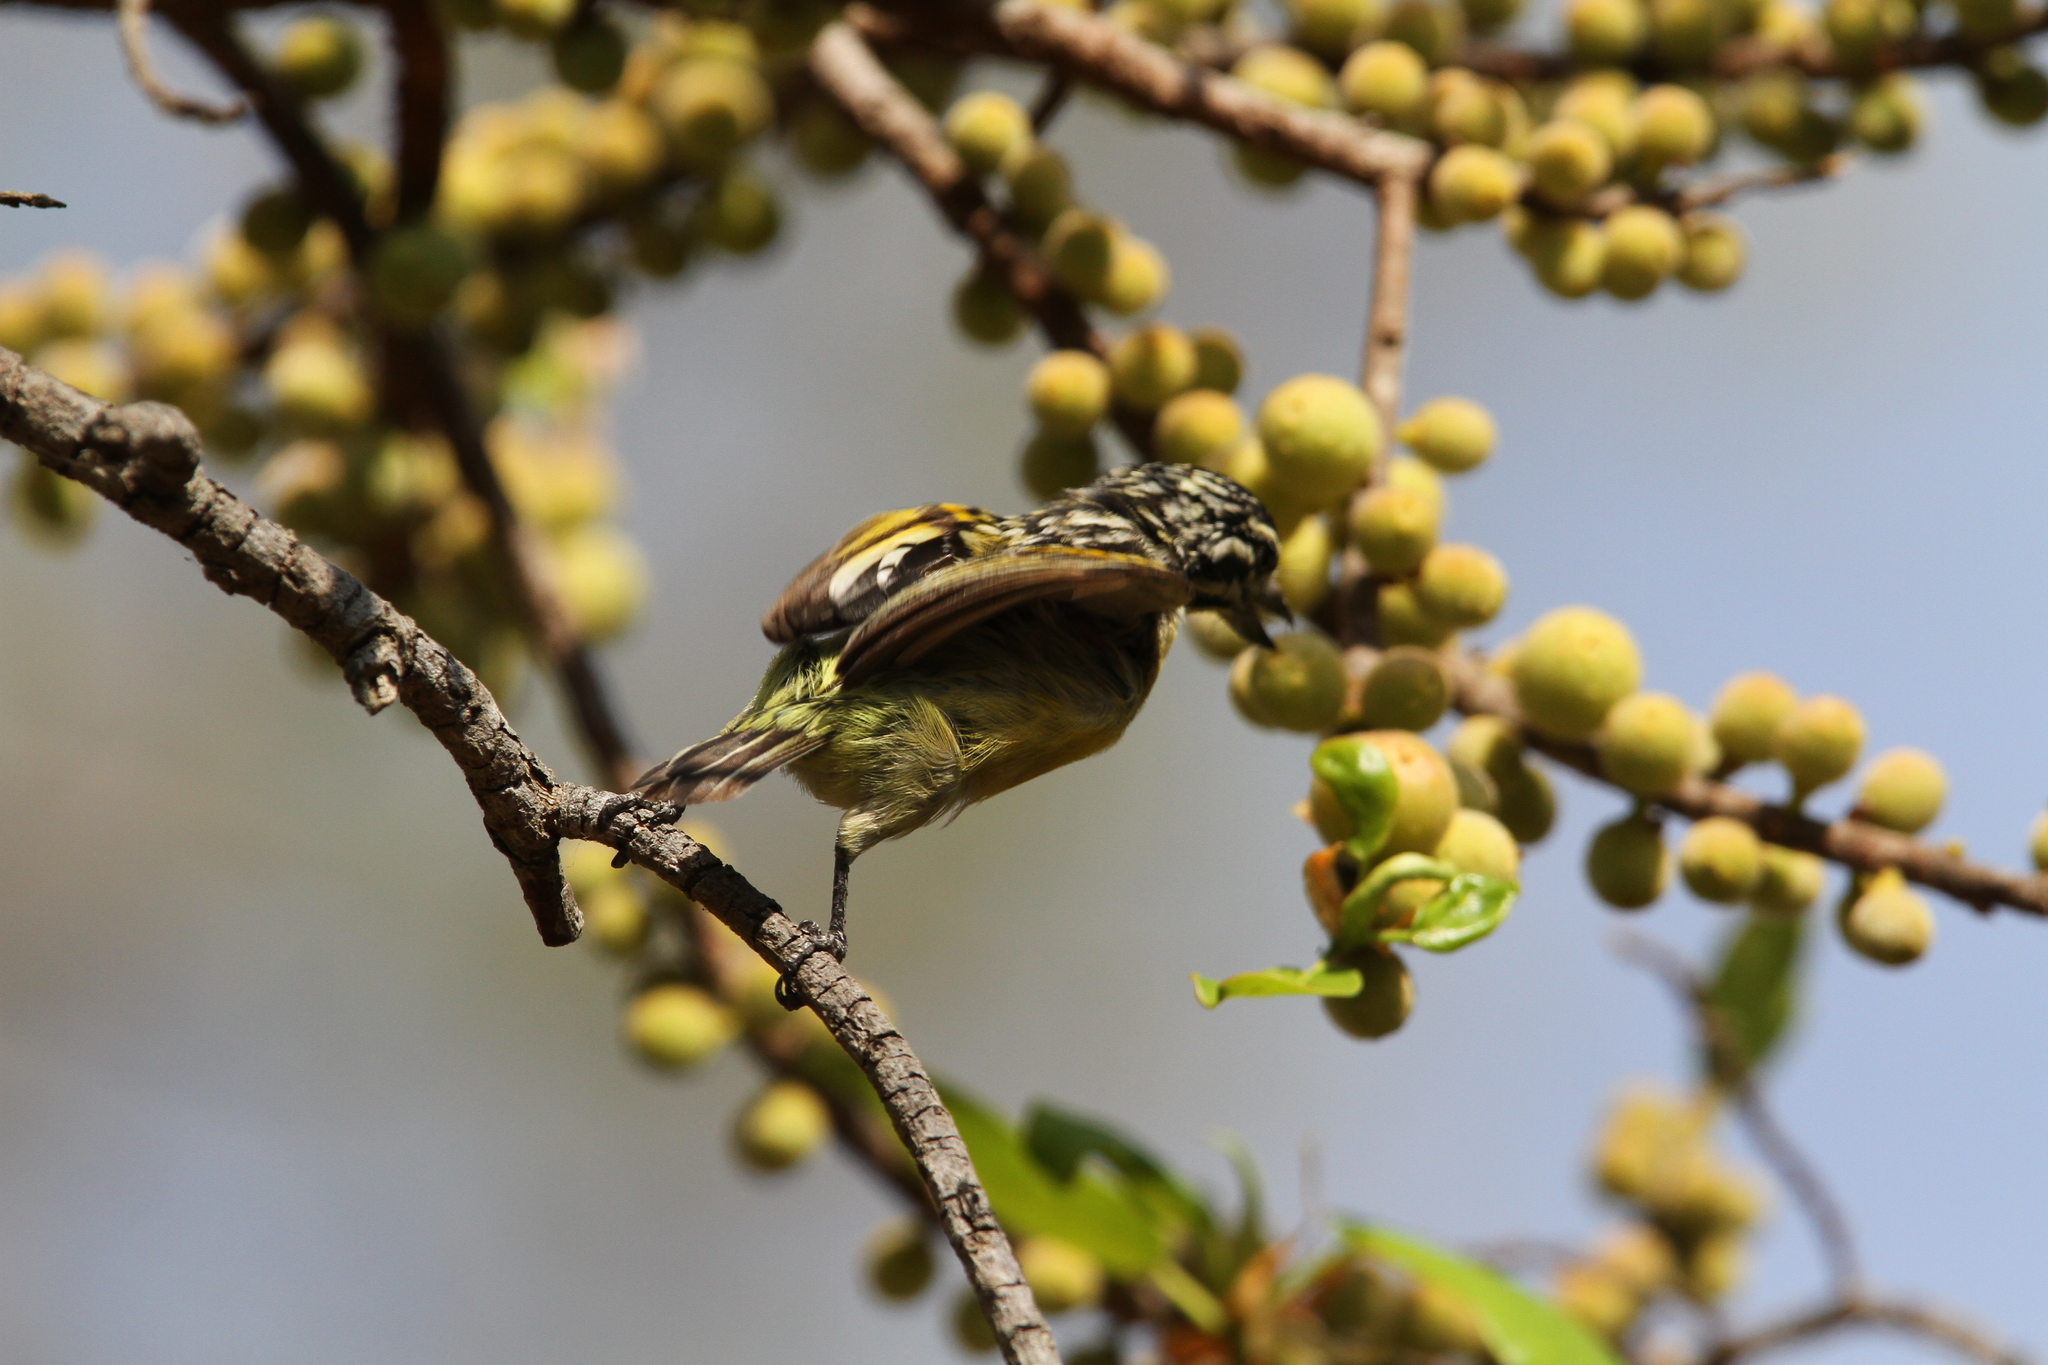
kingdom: Animalia
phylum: Chordata
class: Aves
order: Piciformes
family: Lybiidae
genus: Pogoniulus
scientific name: Pogoniulus chrysoconus
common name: Yellow-fronted tinkerbird
